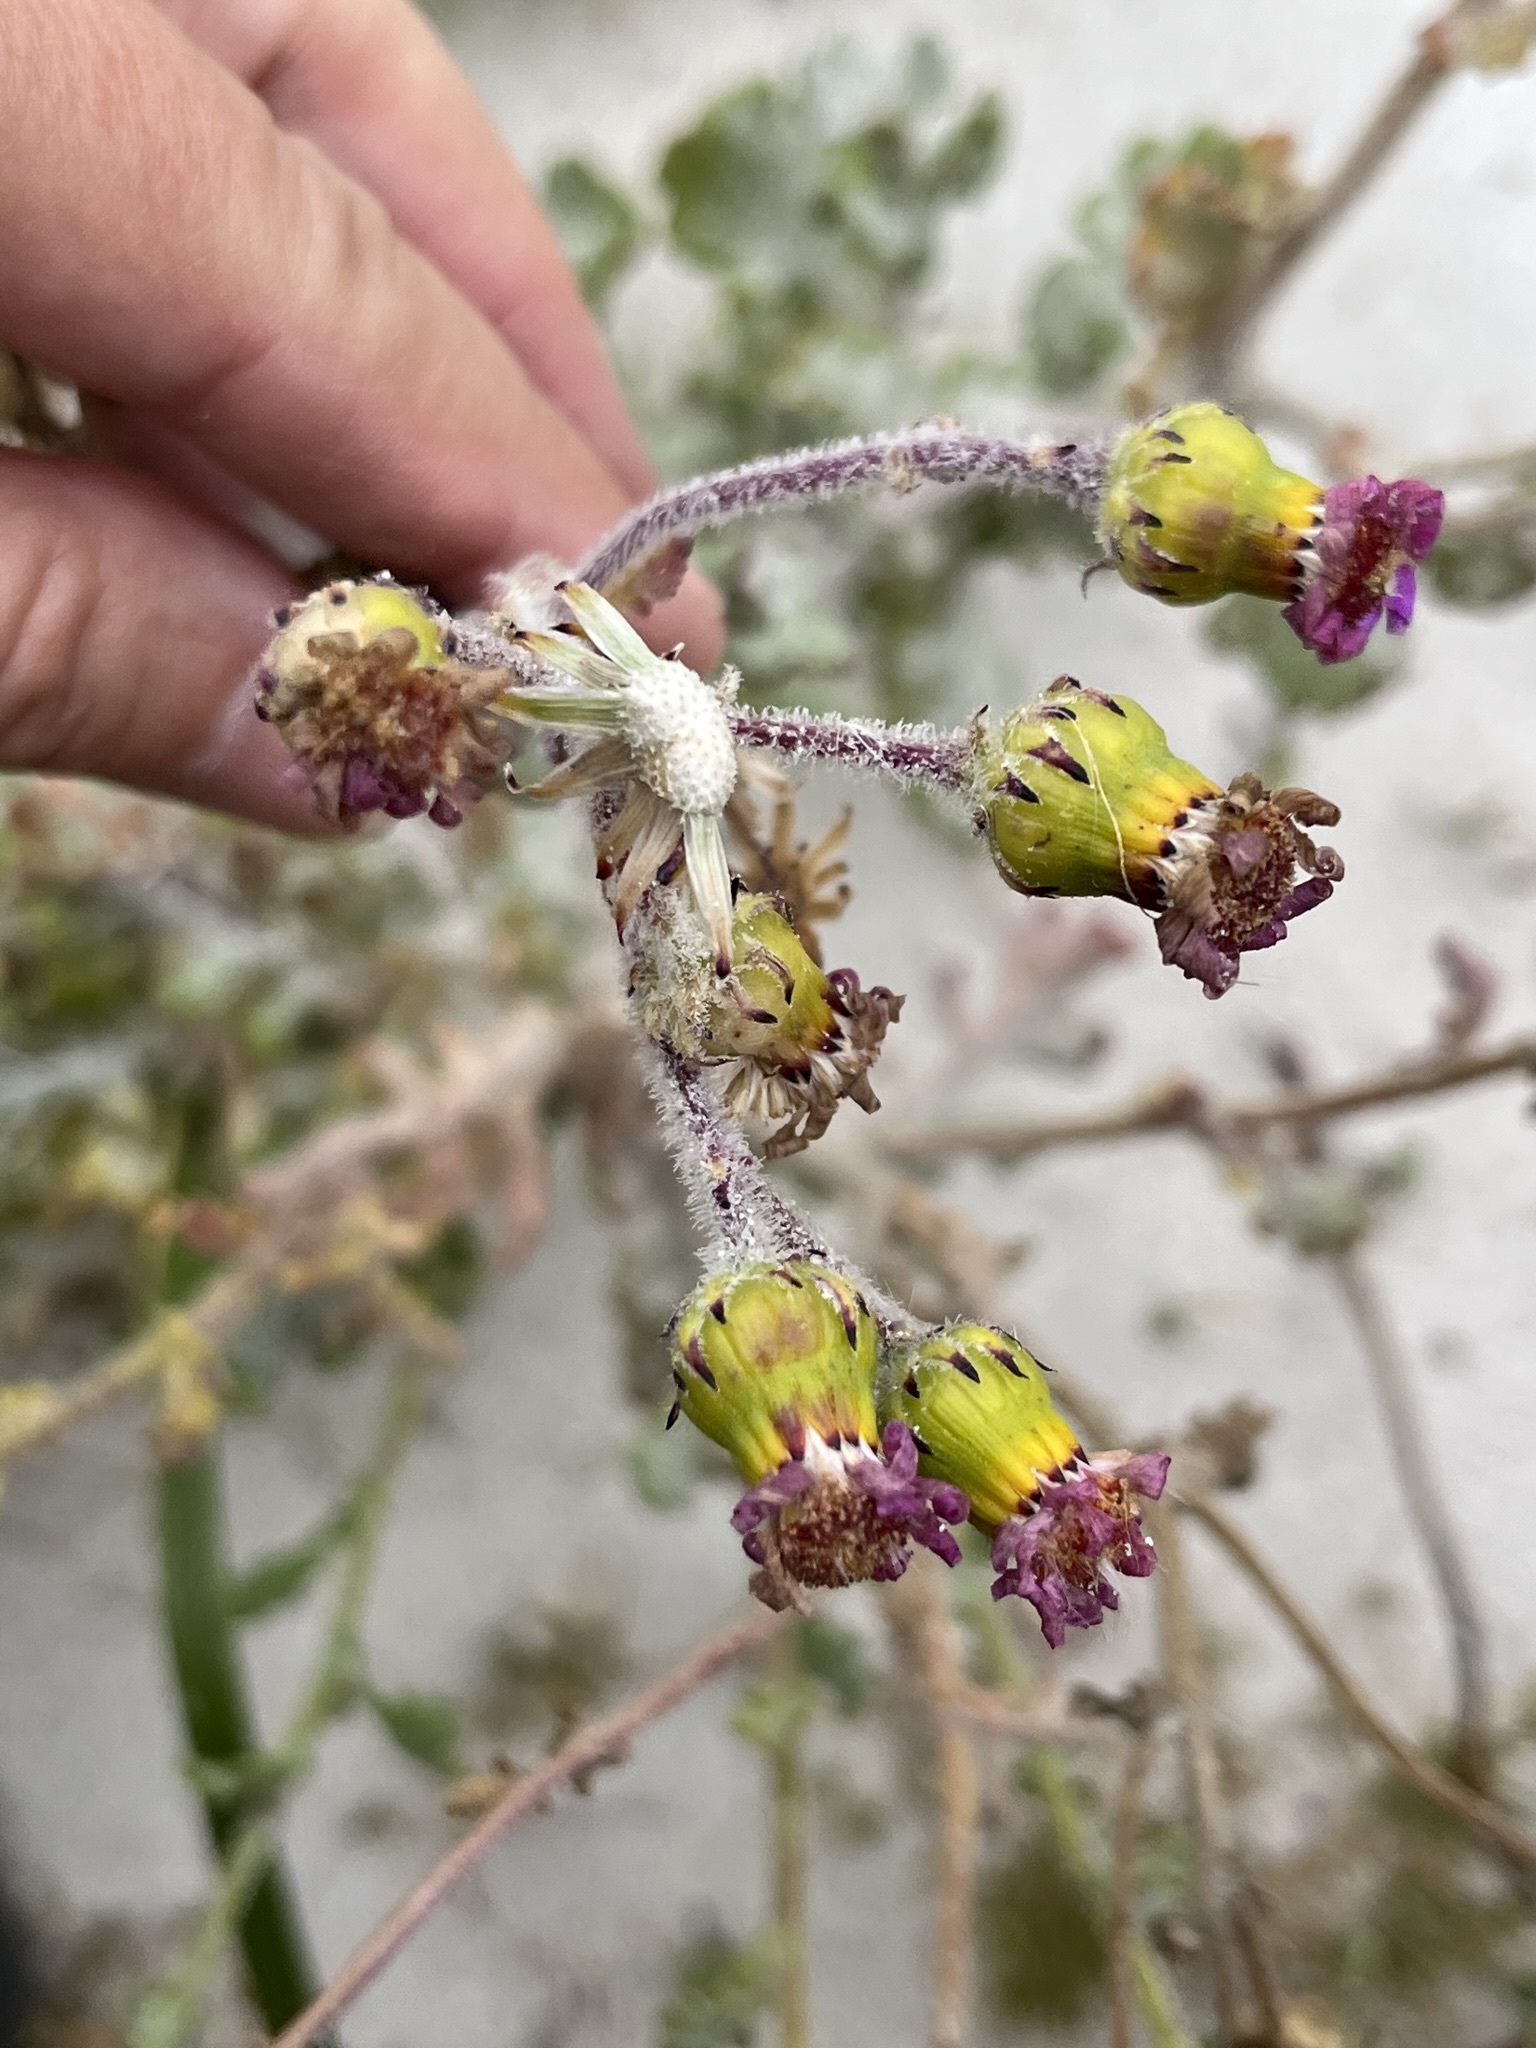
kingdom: Plantae
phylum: Tracheophyta
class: Magnoliopsida
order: Asterales
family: Asteraceae
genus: Senecio
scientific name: Senecio elegans
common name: Purple groundsel
